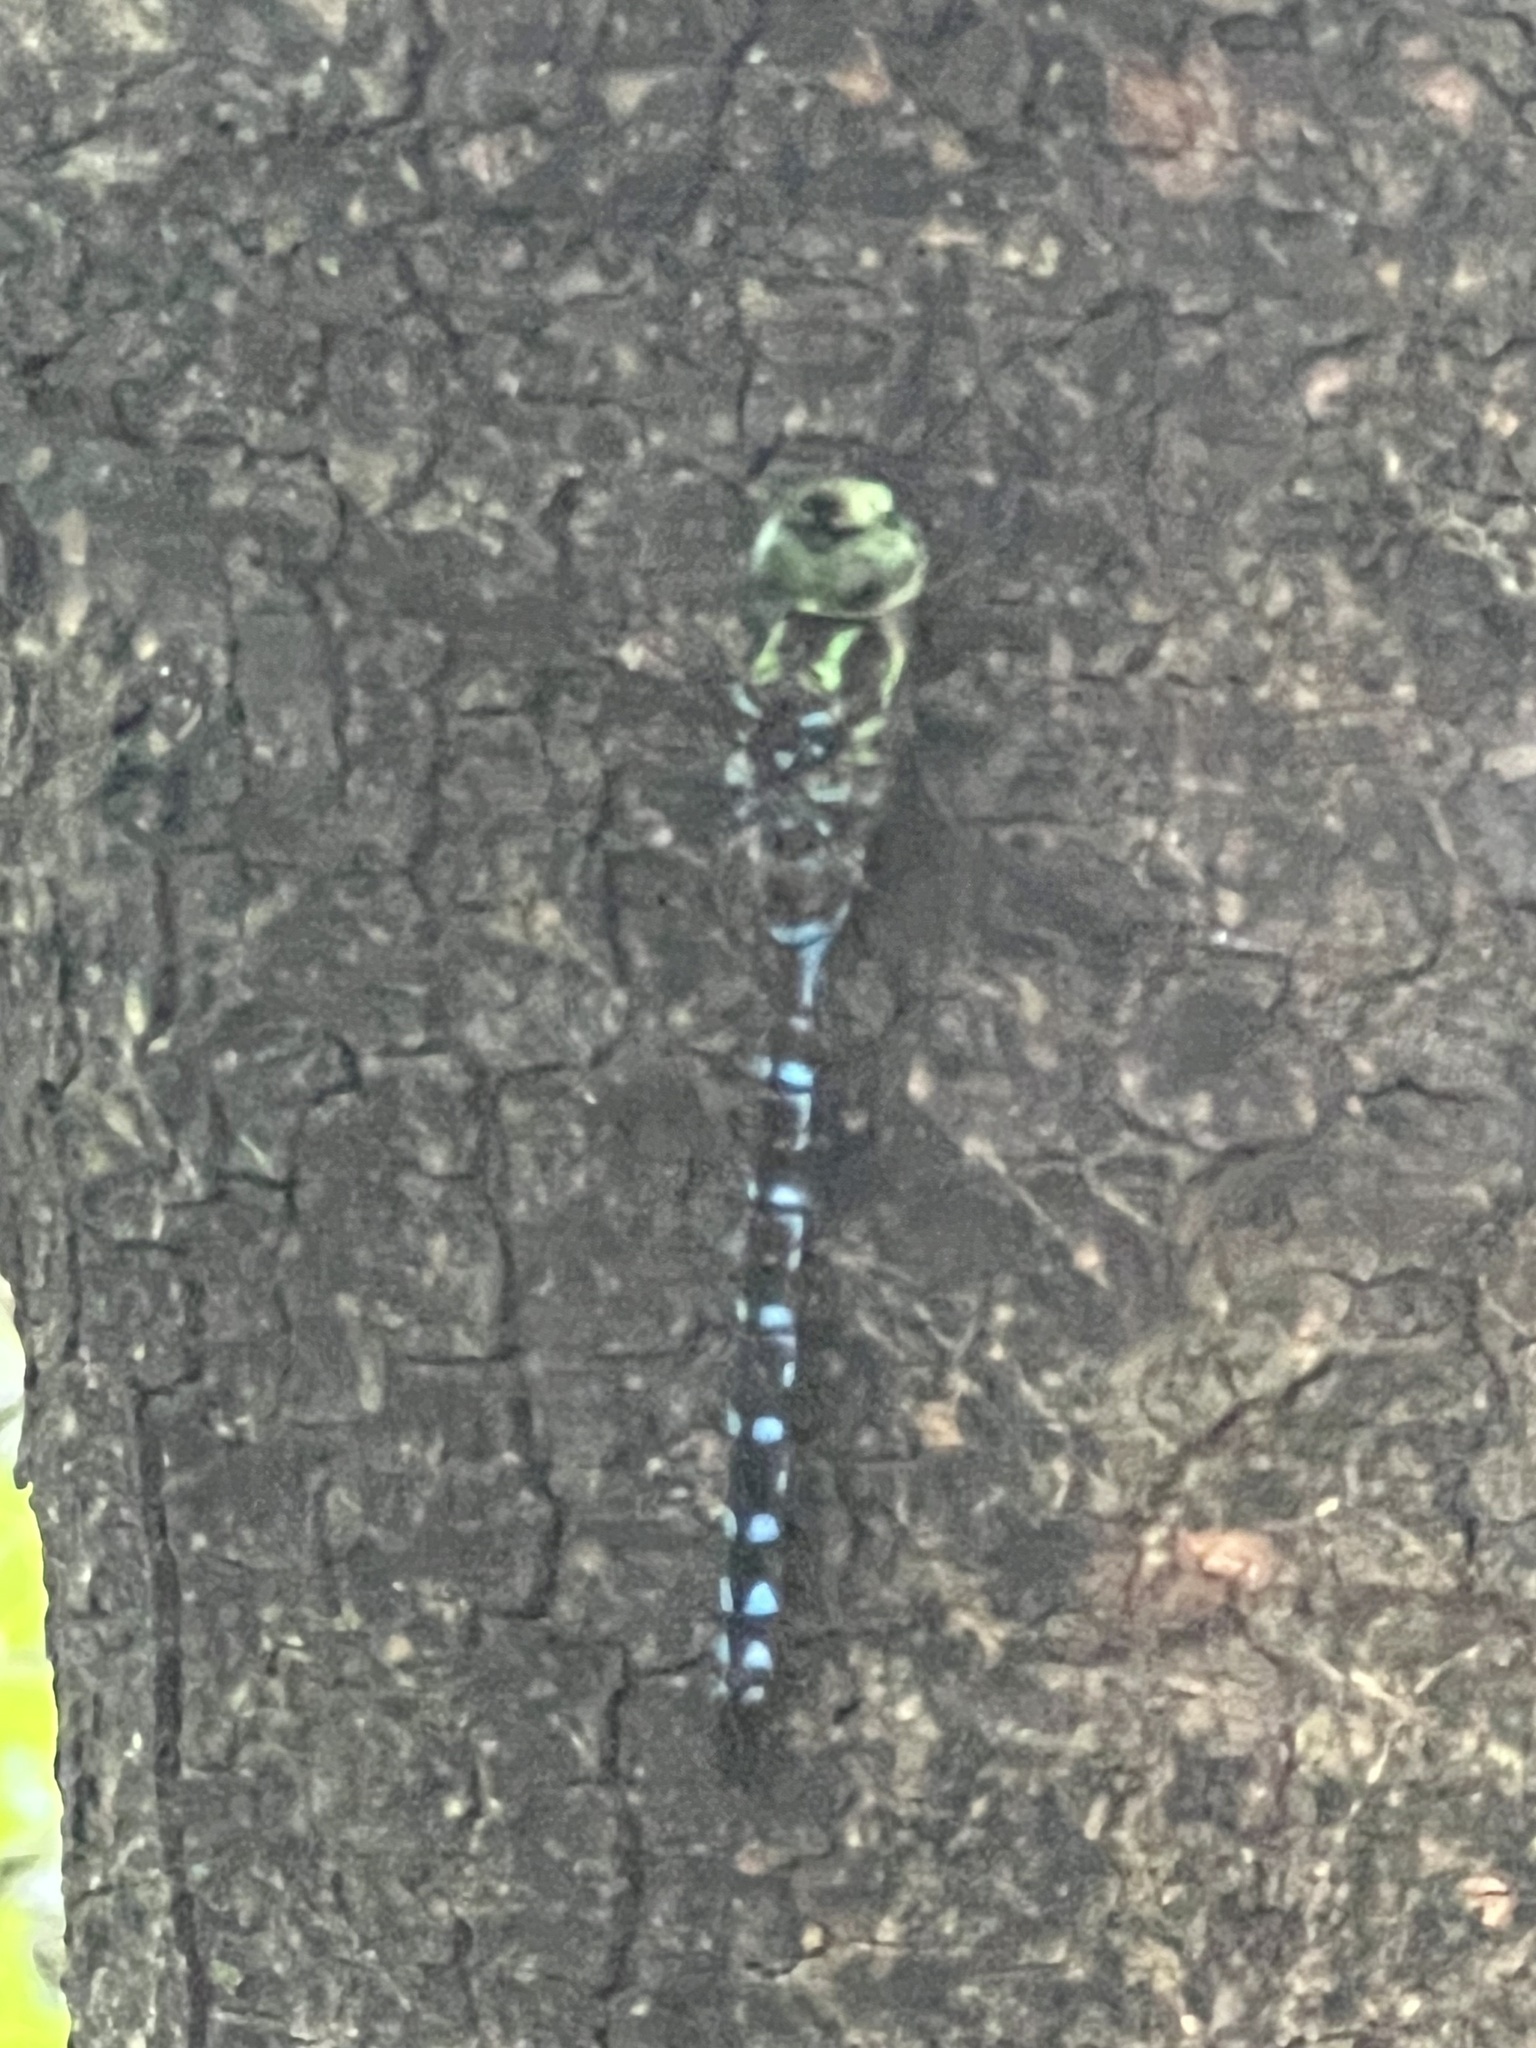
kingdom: Animalia
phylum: Arthropoda
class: Insecta
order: Odonata
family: Aeshnidae
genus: Aeshna
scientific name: Aeshna verticalis
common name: Green-striped darner
